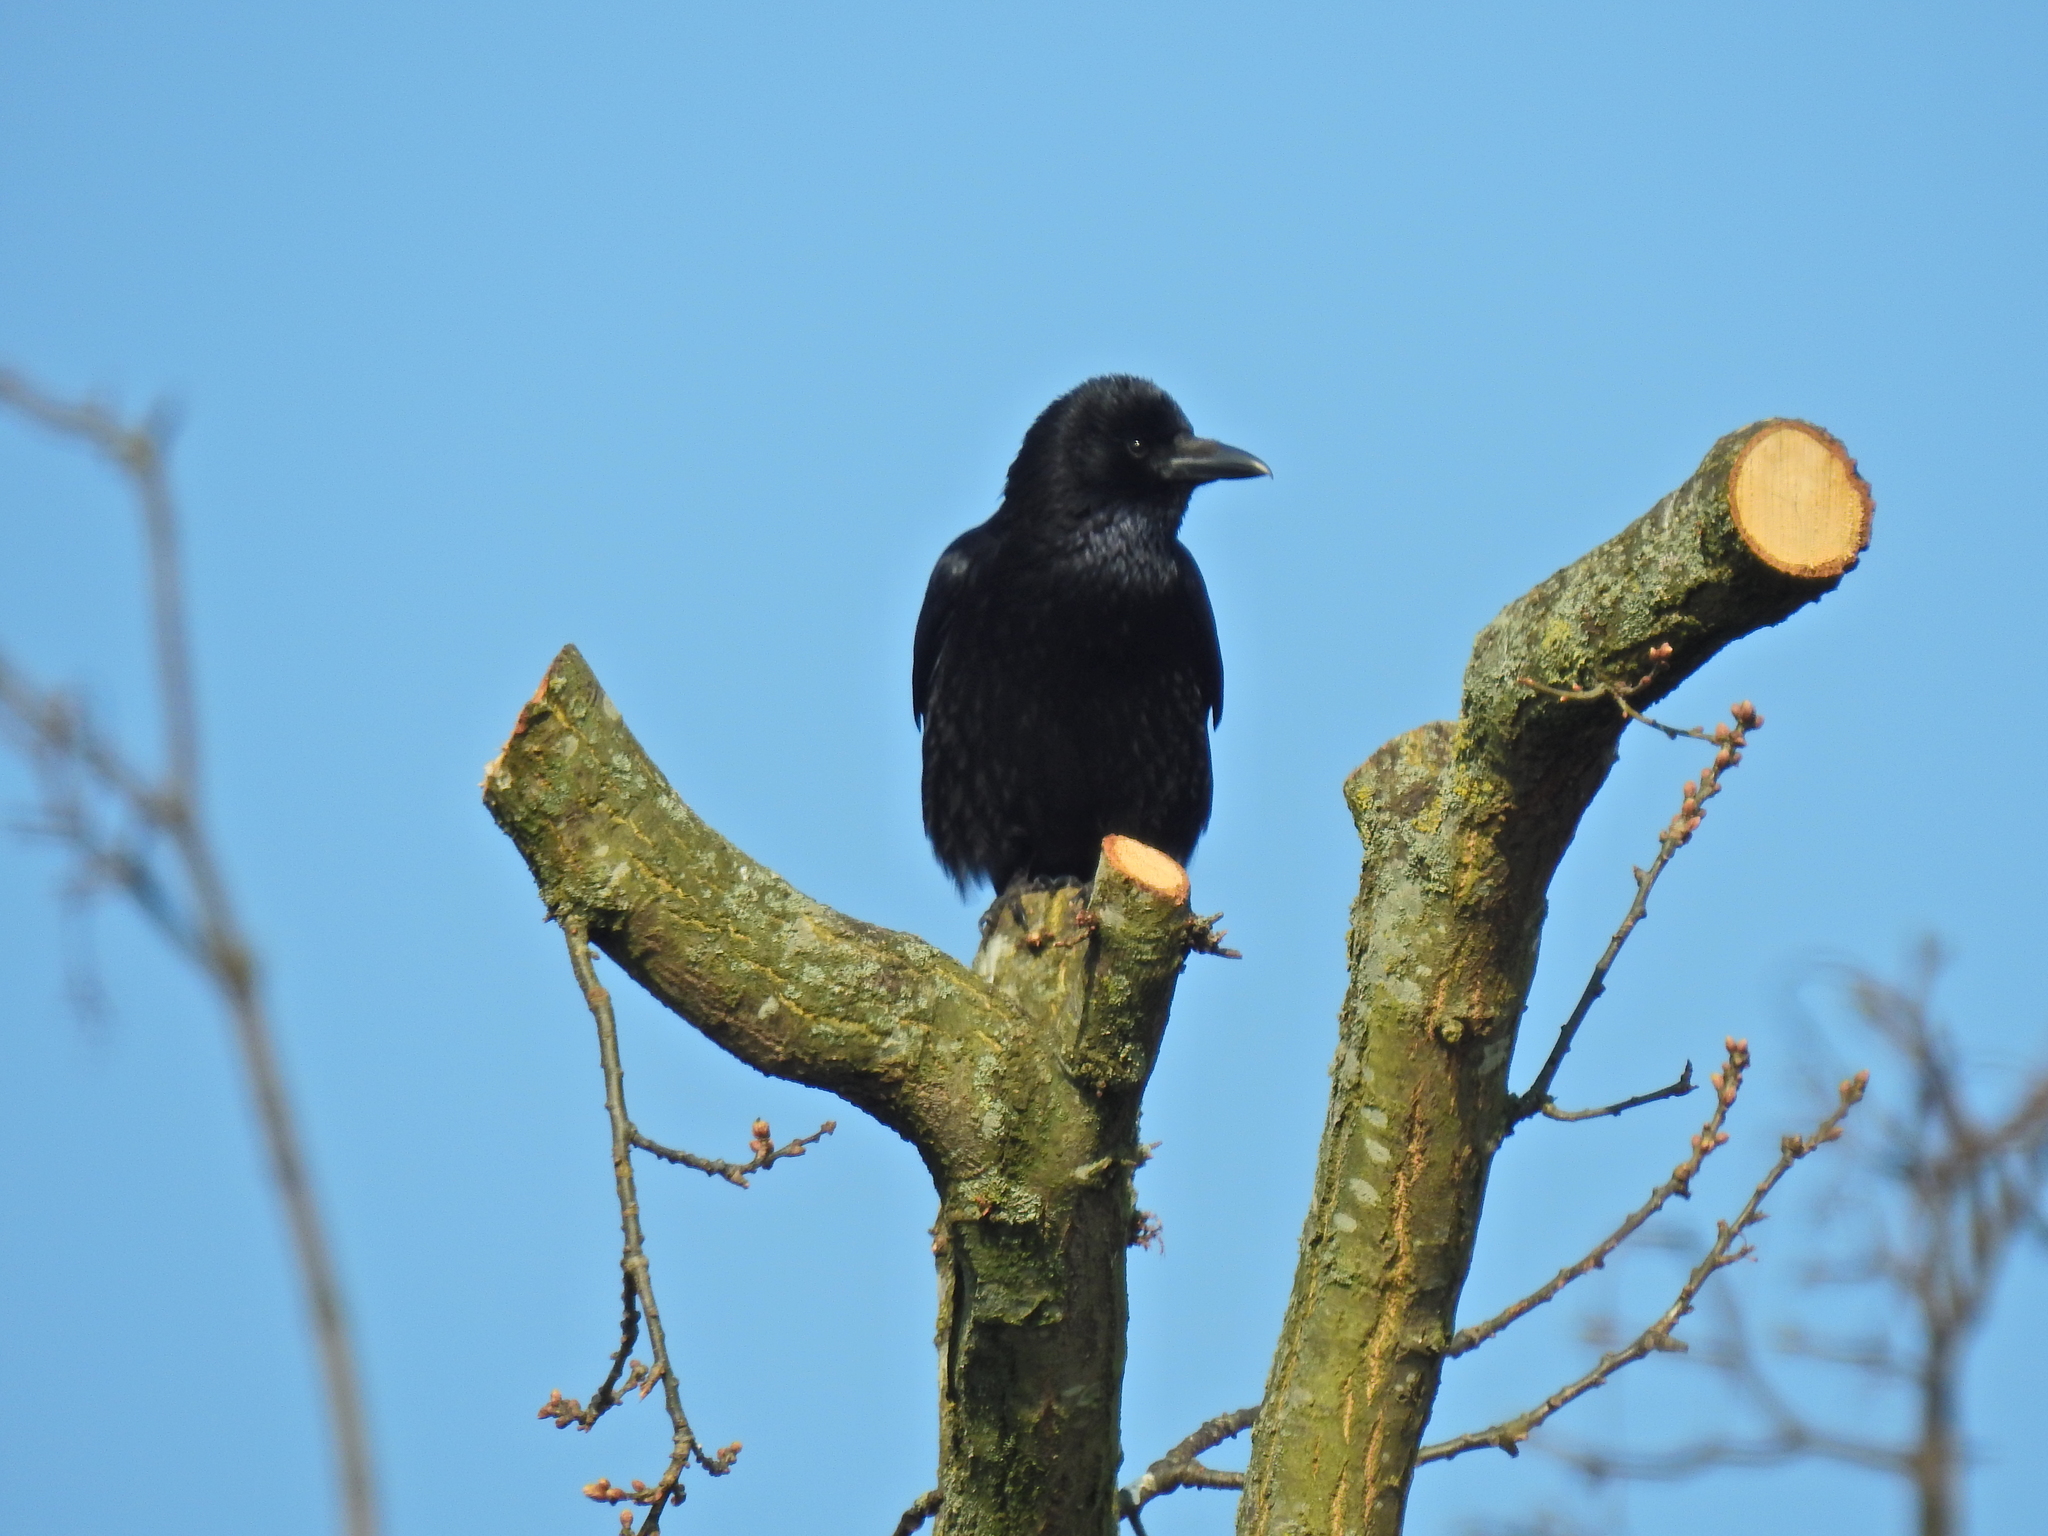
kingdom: Animalia
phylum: Chordata
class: Aves
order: Passeriformes
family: Corvidae
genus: Corvus
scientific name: Corvus corone
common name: Carrion crow
